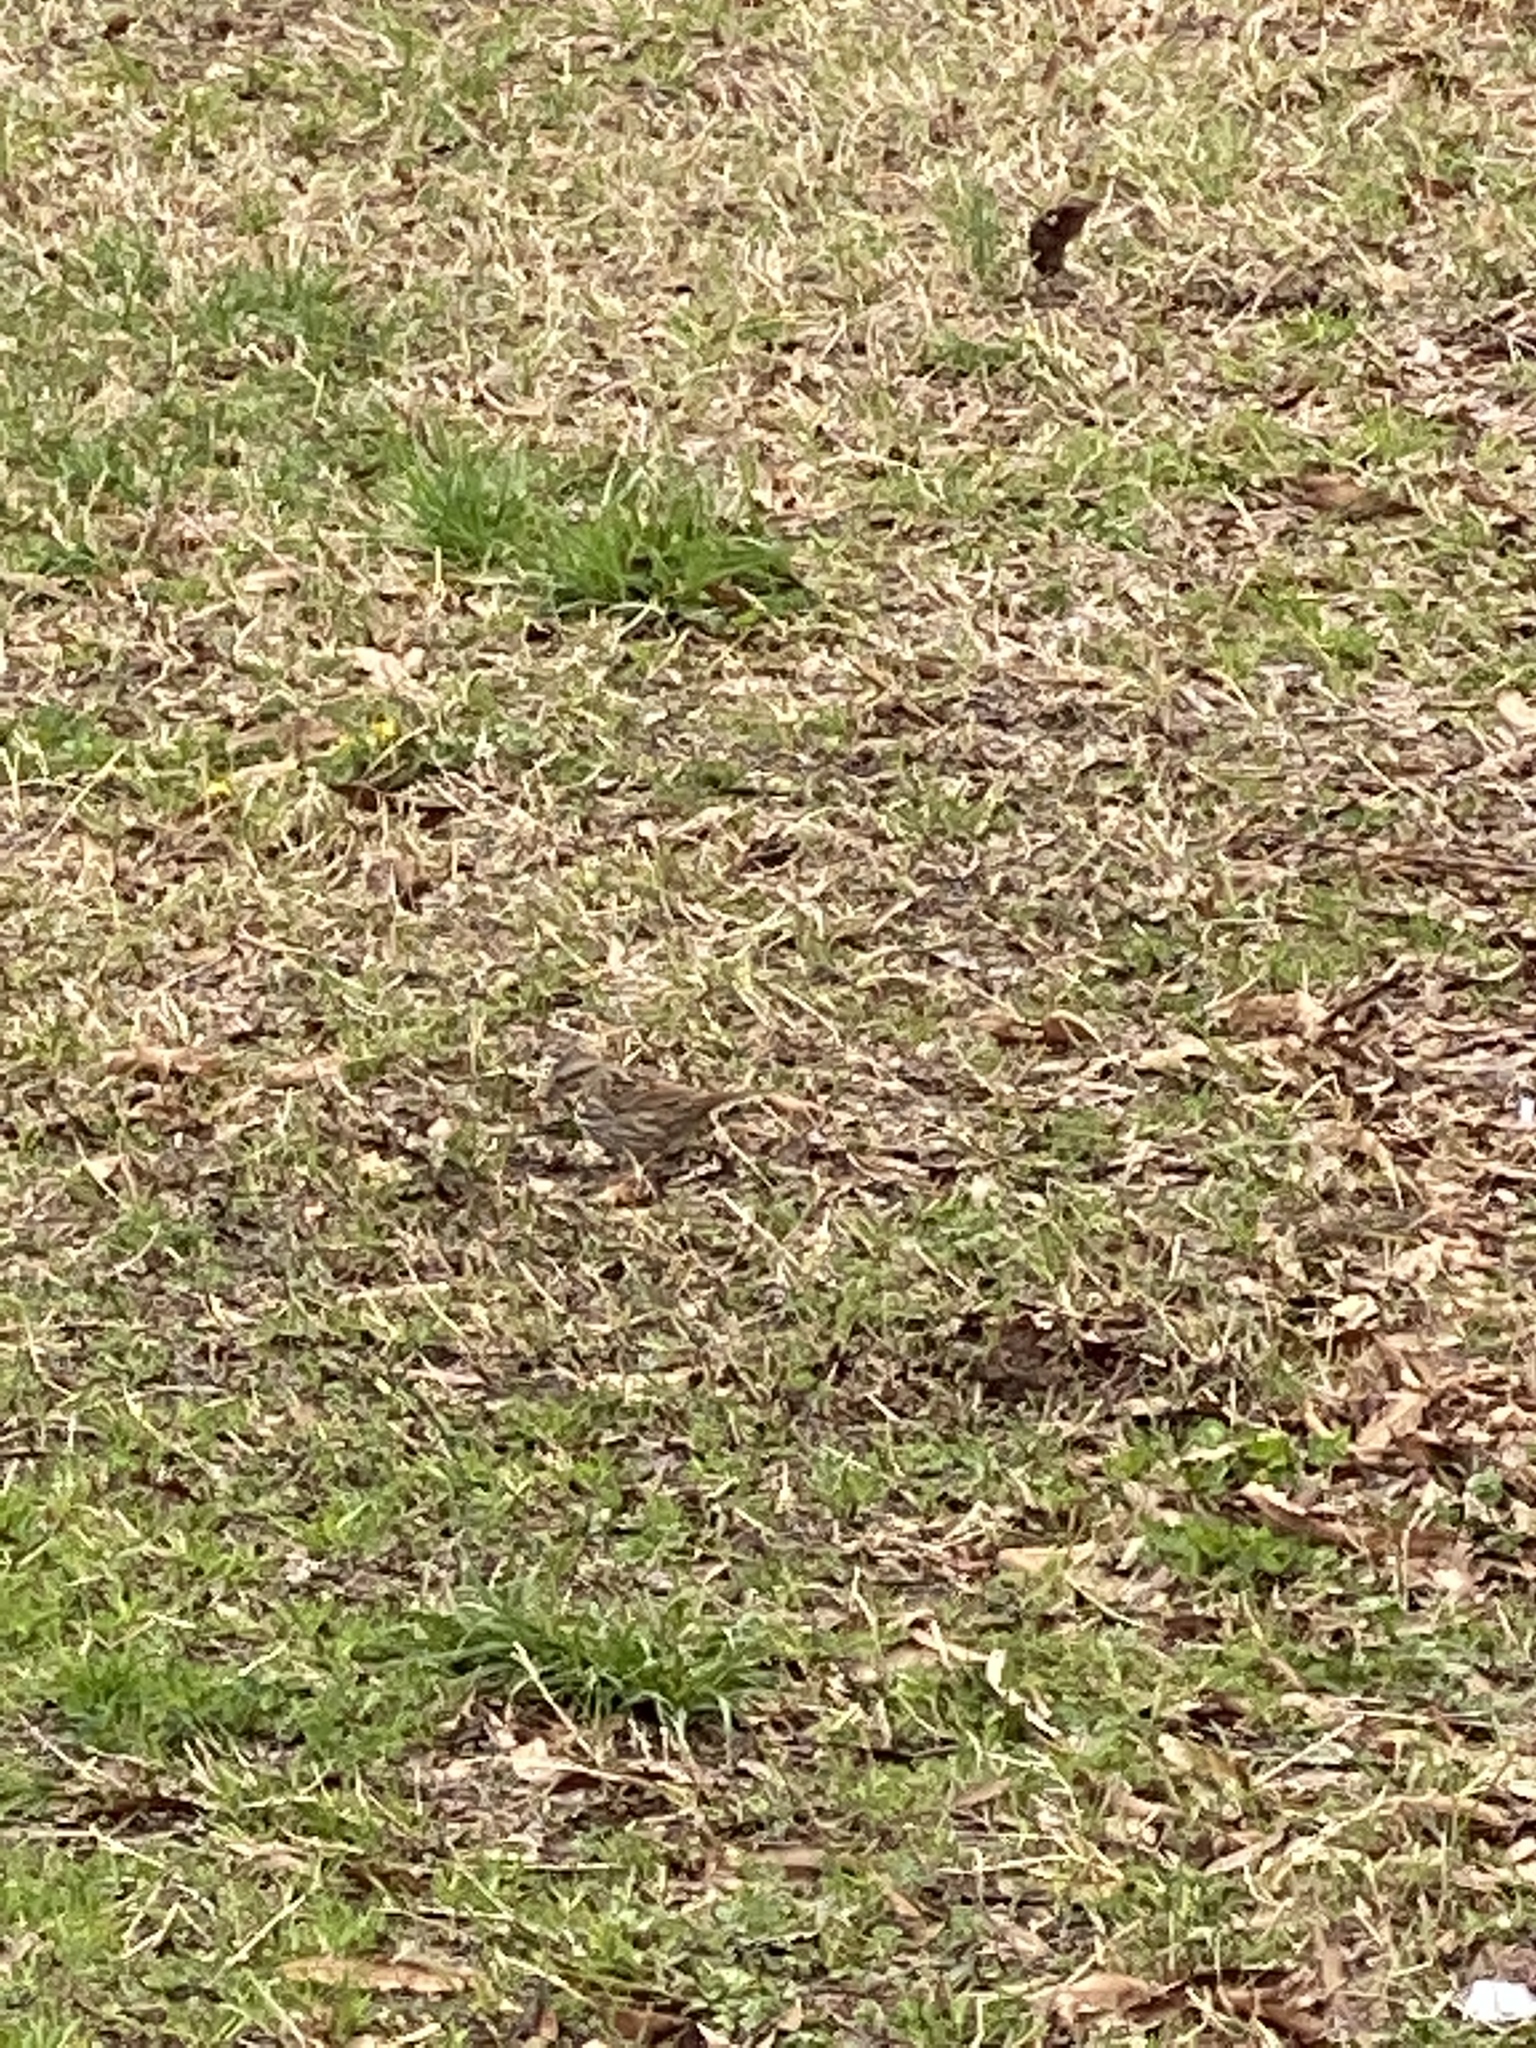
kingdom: Animalia
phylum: Chordata
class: Aves
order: Passeriformes
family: Passerellidae
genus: Melospiza
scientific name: Melospiza melodia
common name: Song sparrow
